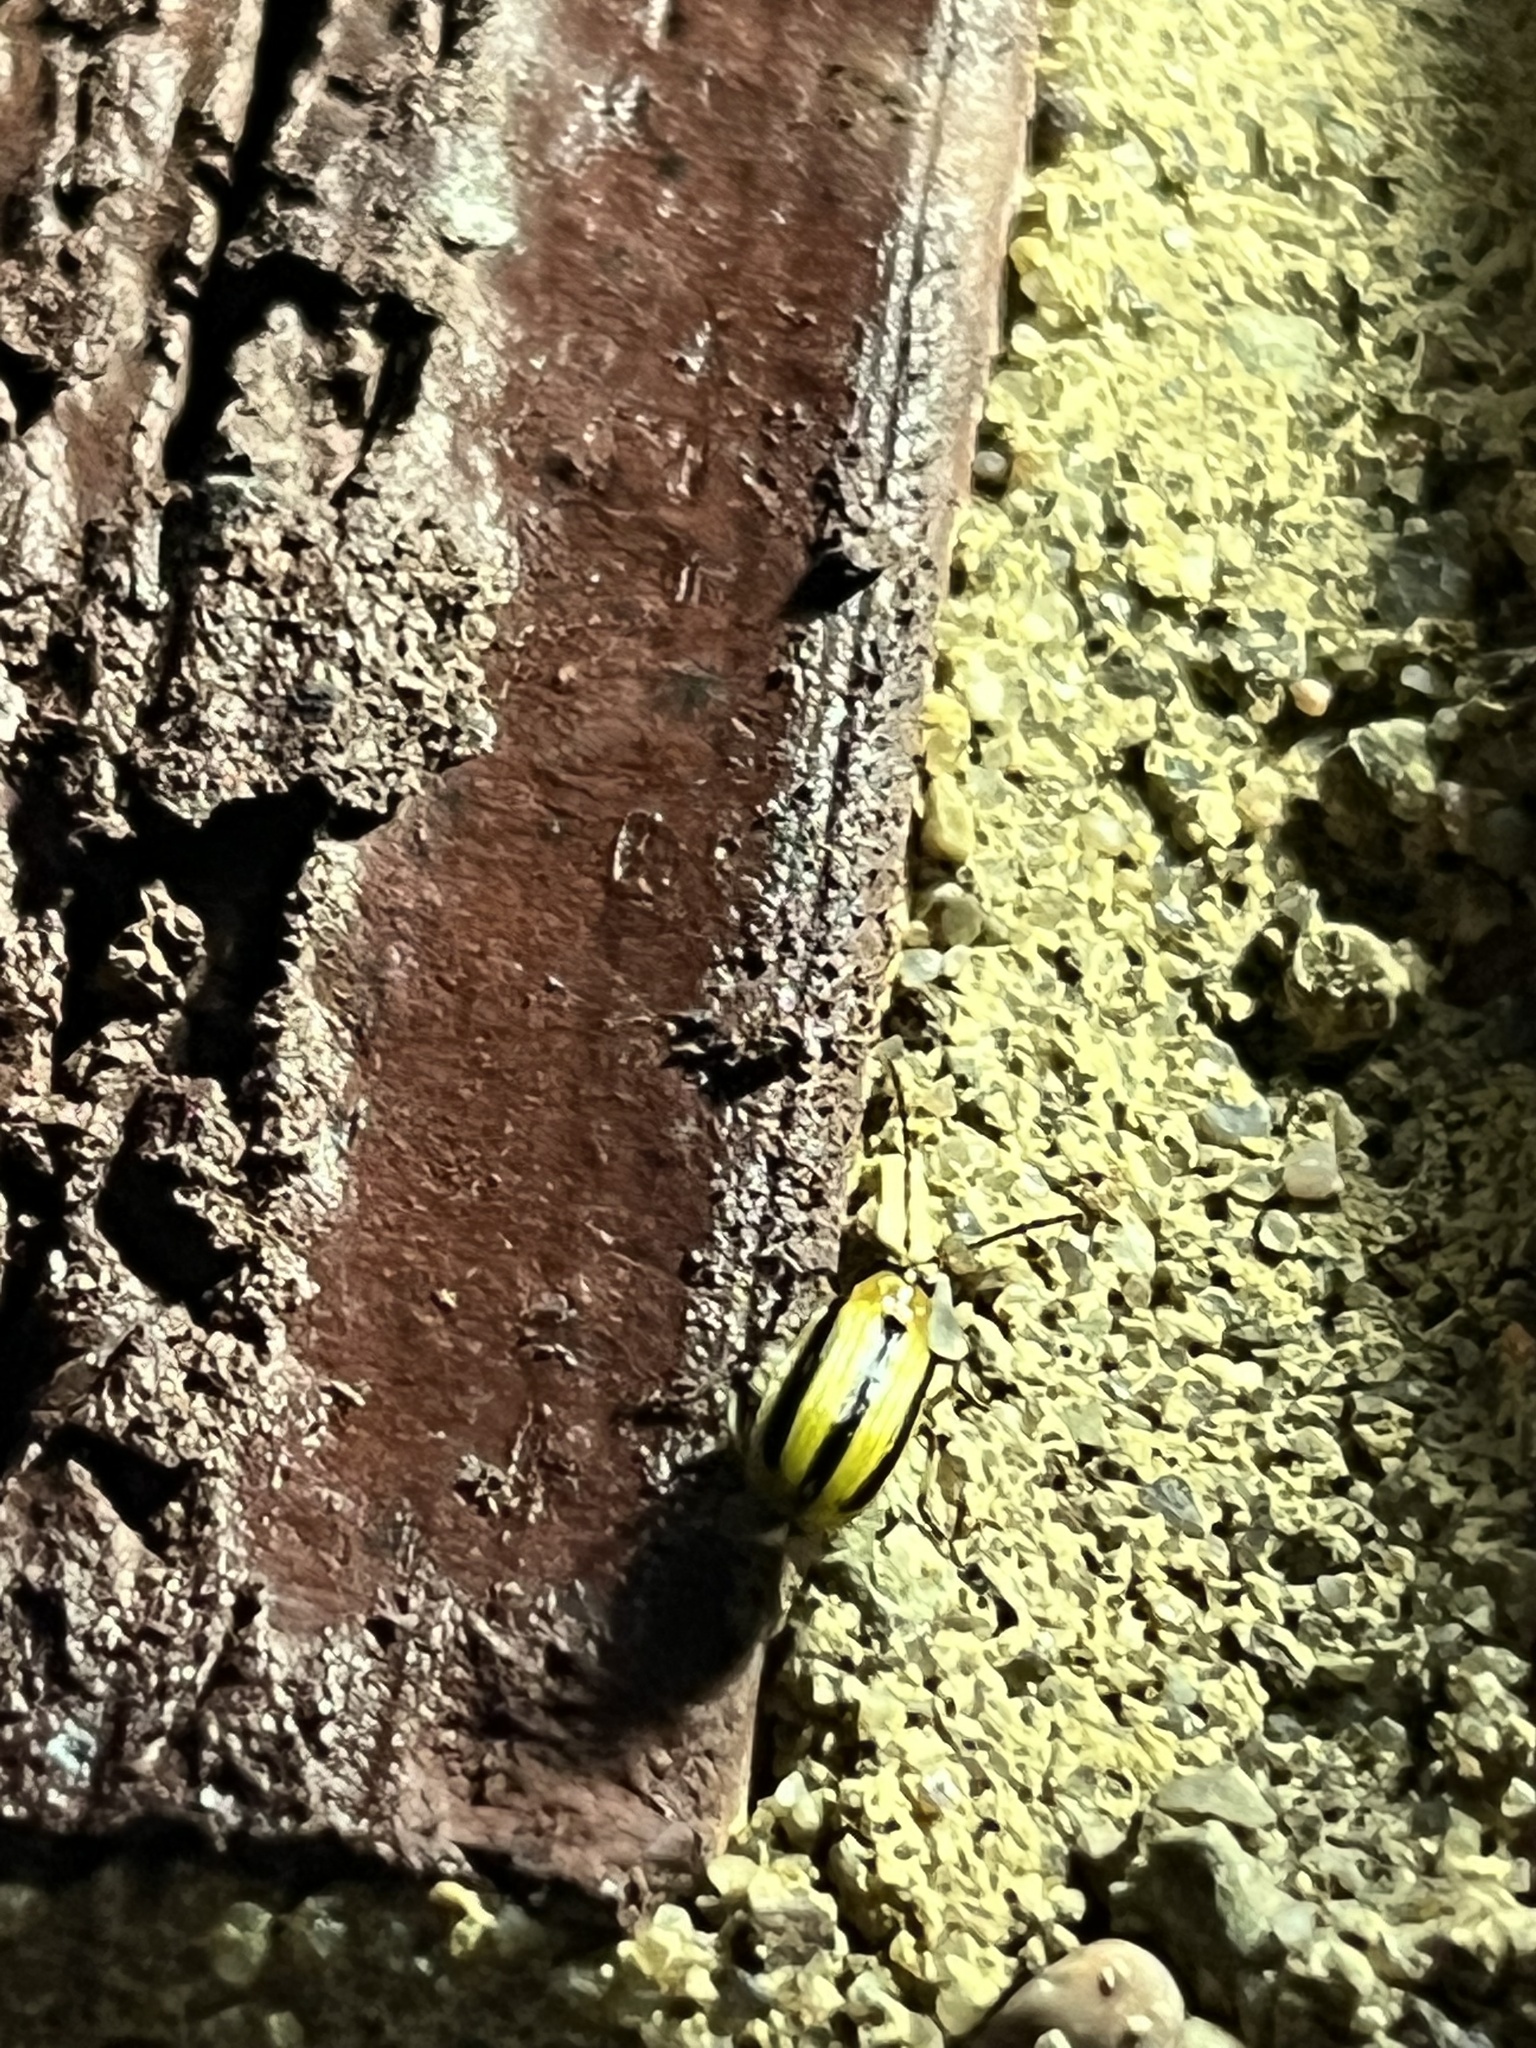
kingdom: Animalia
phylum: Arthropoda
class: Insecta
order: Coleoptera
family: Chrysomelidae
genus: Acalymma
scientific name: Acalymma vittatum
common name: Striped cucumber beetle
